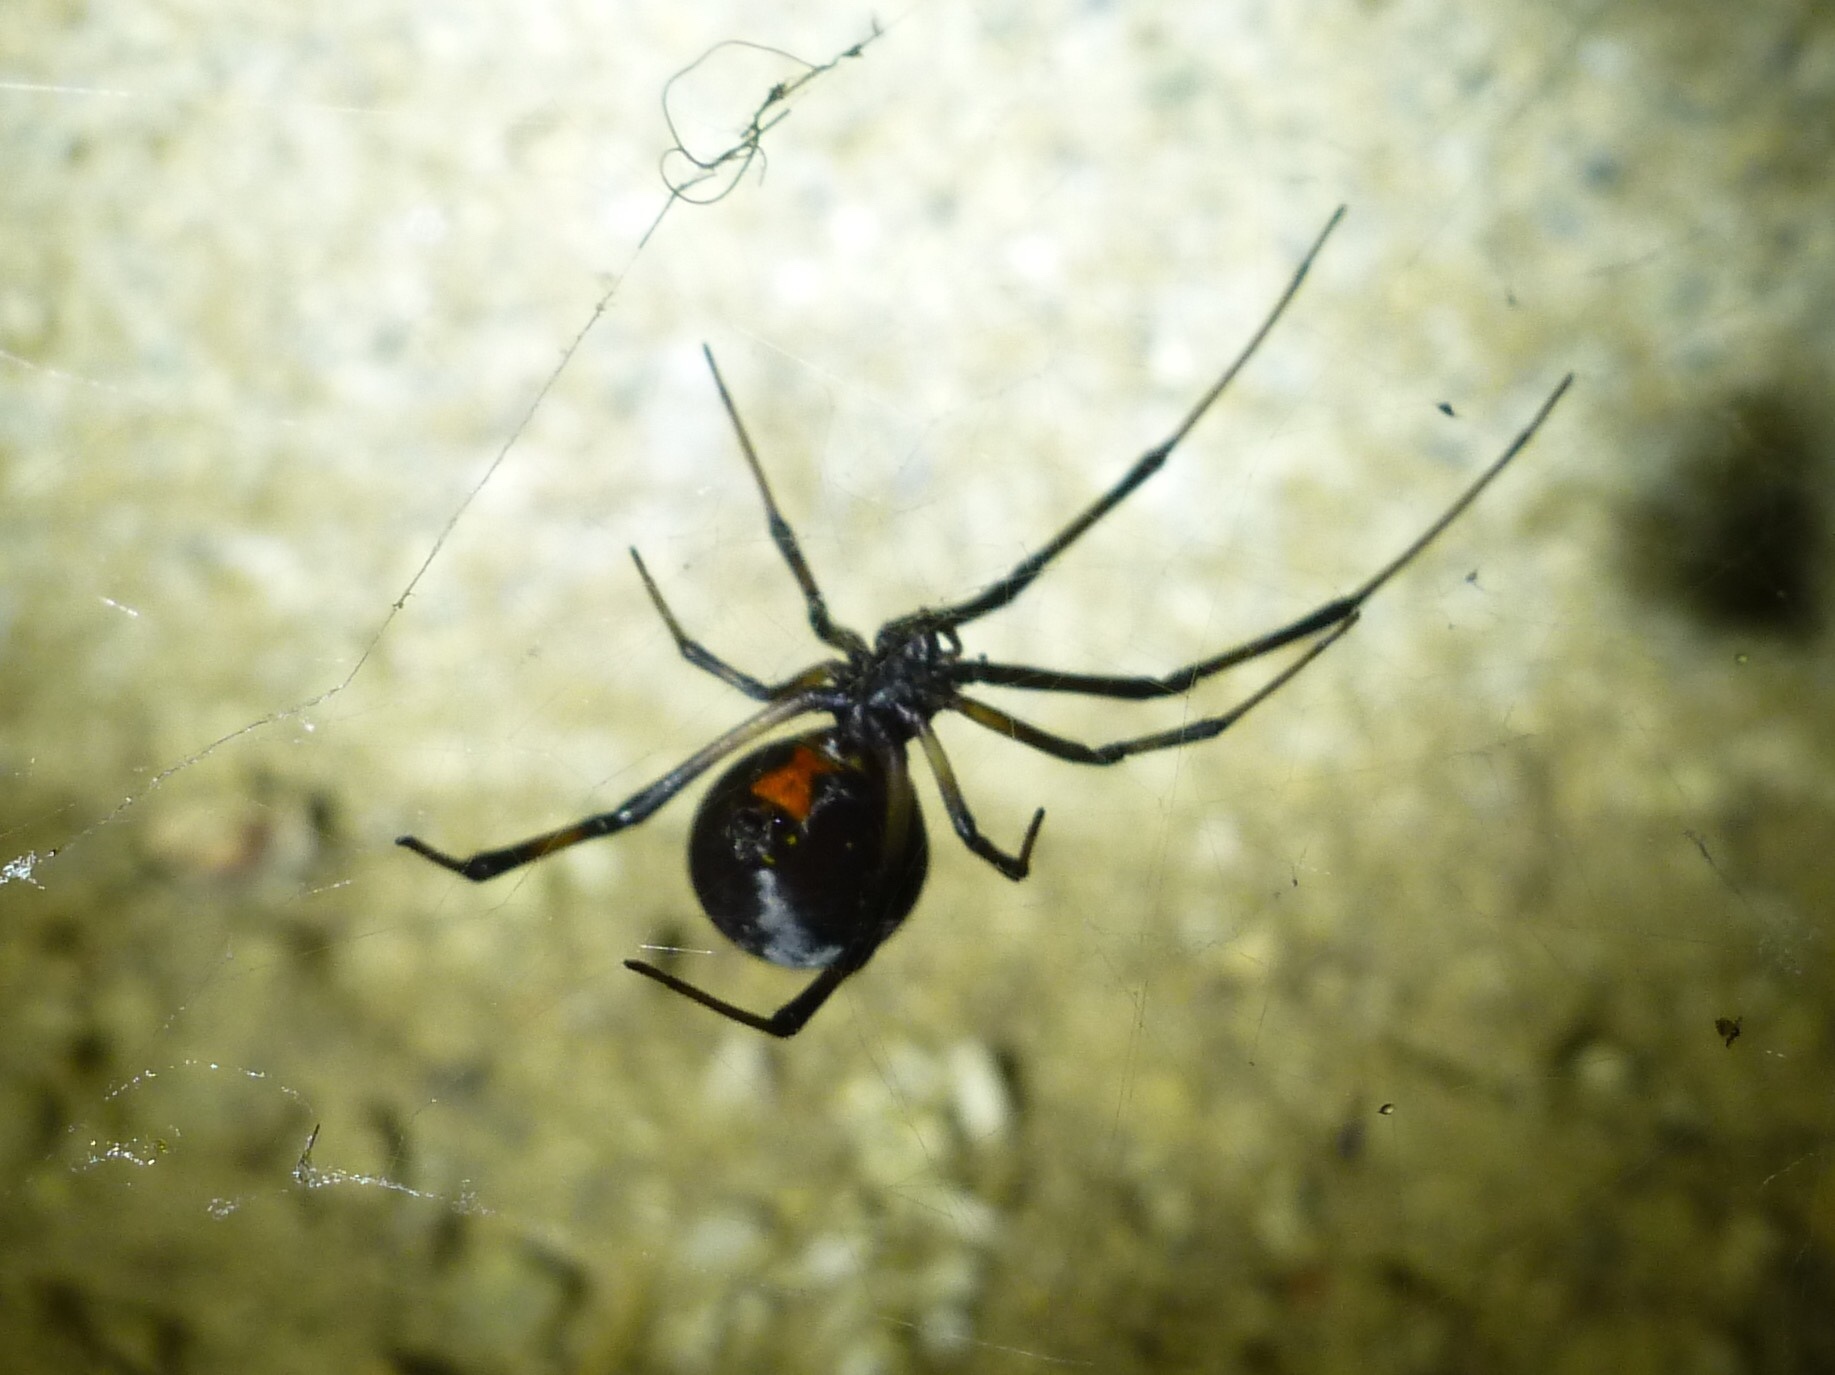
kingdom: Animalia
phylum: Arthropoda
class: Arachnida
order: Araneae
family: Theridiidae
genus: Latrodectus
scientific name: Latrodectus hesperus
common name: Western black widow
